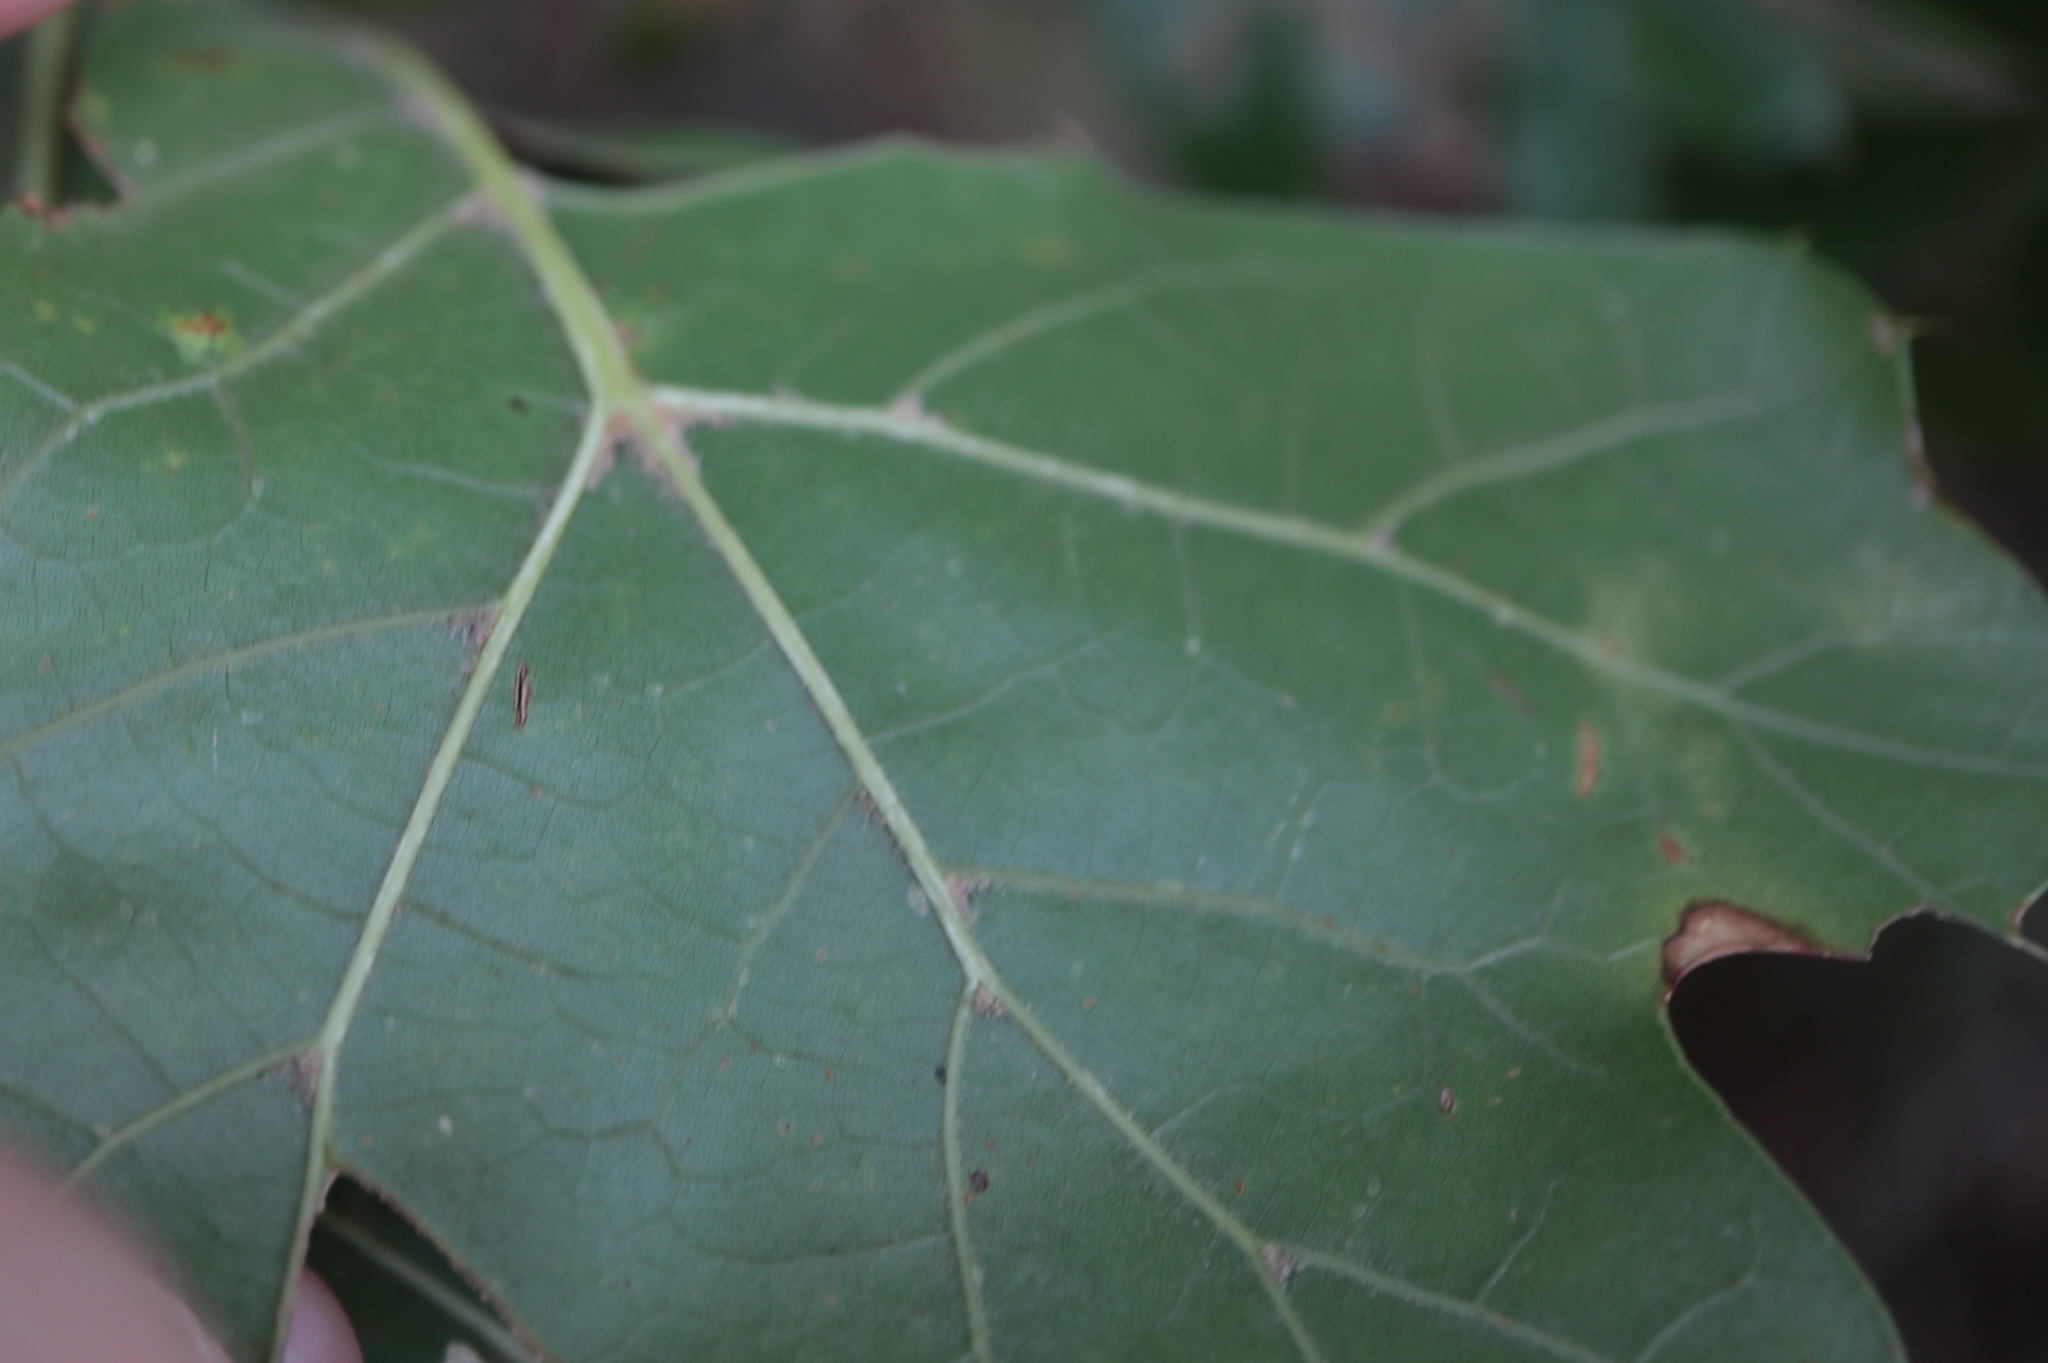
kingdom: Plantae
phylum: Tracheophyta
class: Magnoliopsida
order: Fagales
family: Fagaceae
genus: Quercus
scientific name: Quercus marilandica
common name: Blackjack oak
